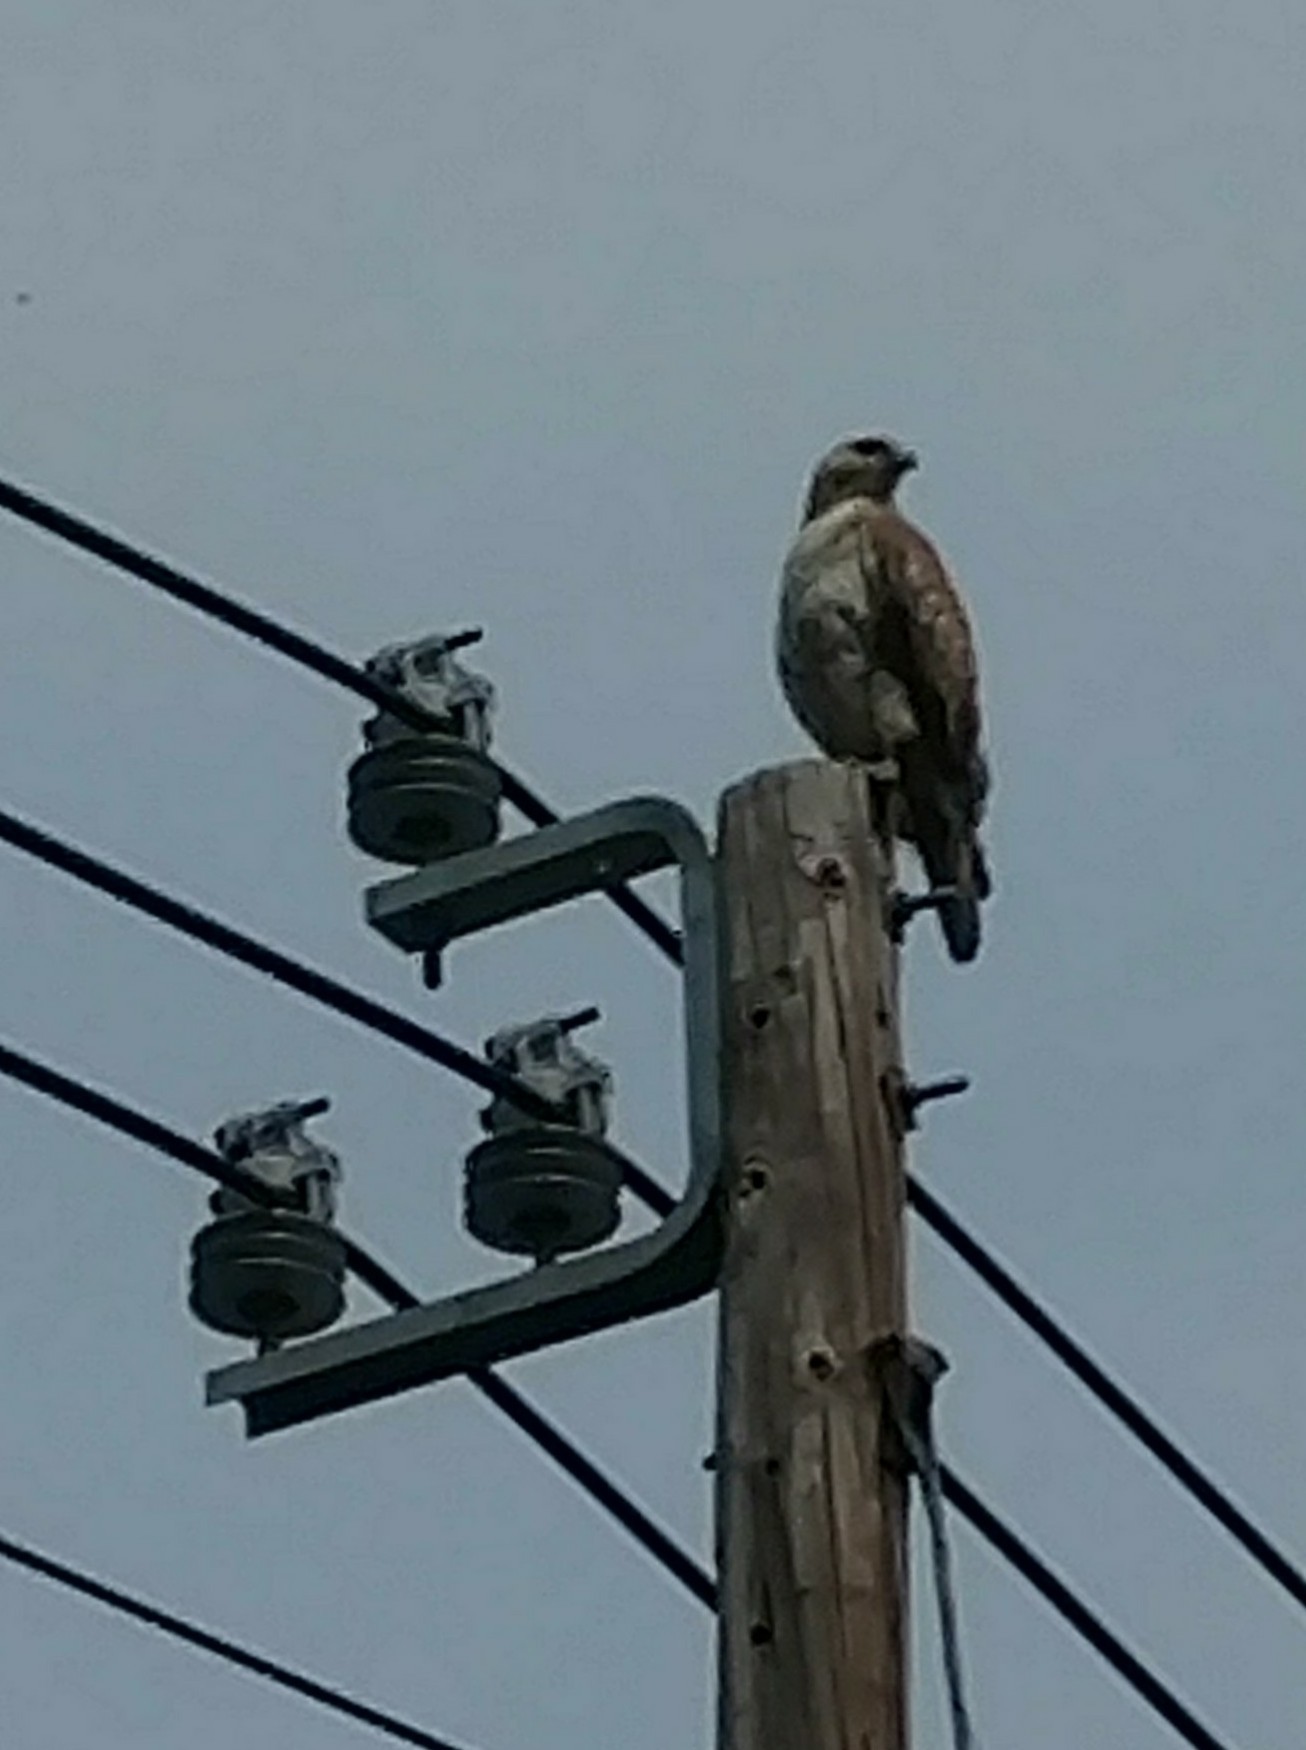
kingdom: Animalia
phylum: Chordata
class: Aves
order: Accipitriformes
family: Accipitridae
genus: Buteo
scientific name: Buteo jamaicensis
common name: Red-tailed hawk
